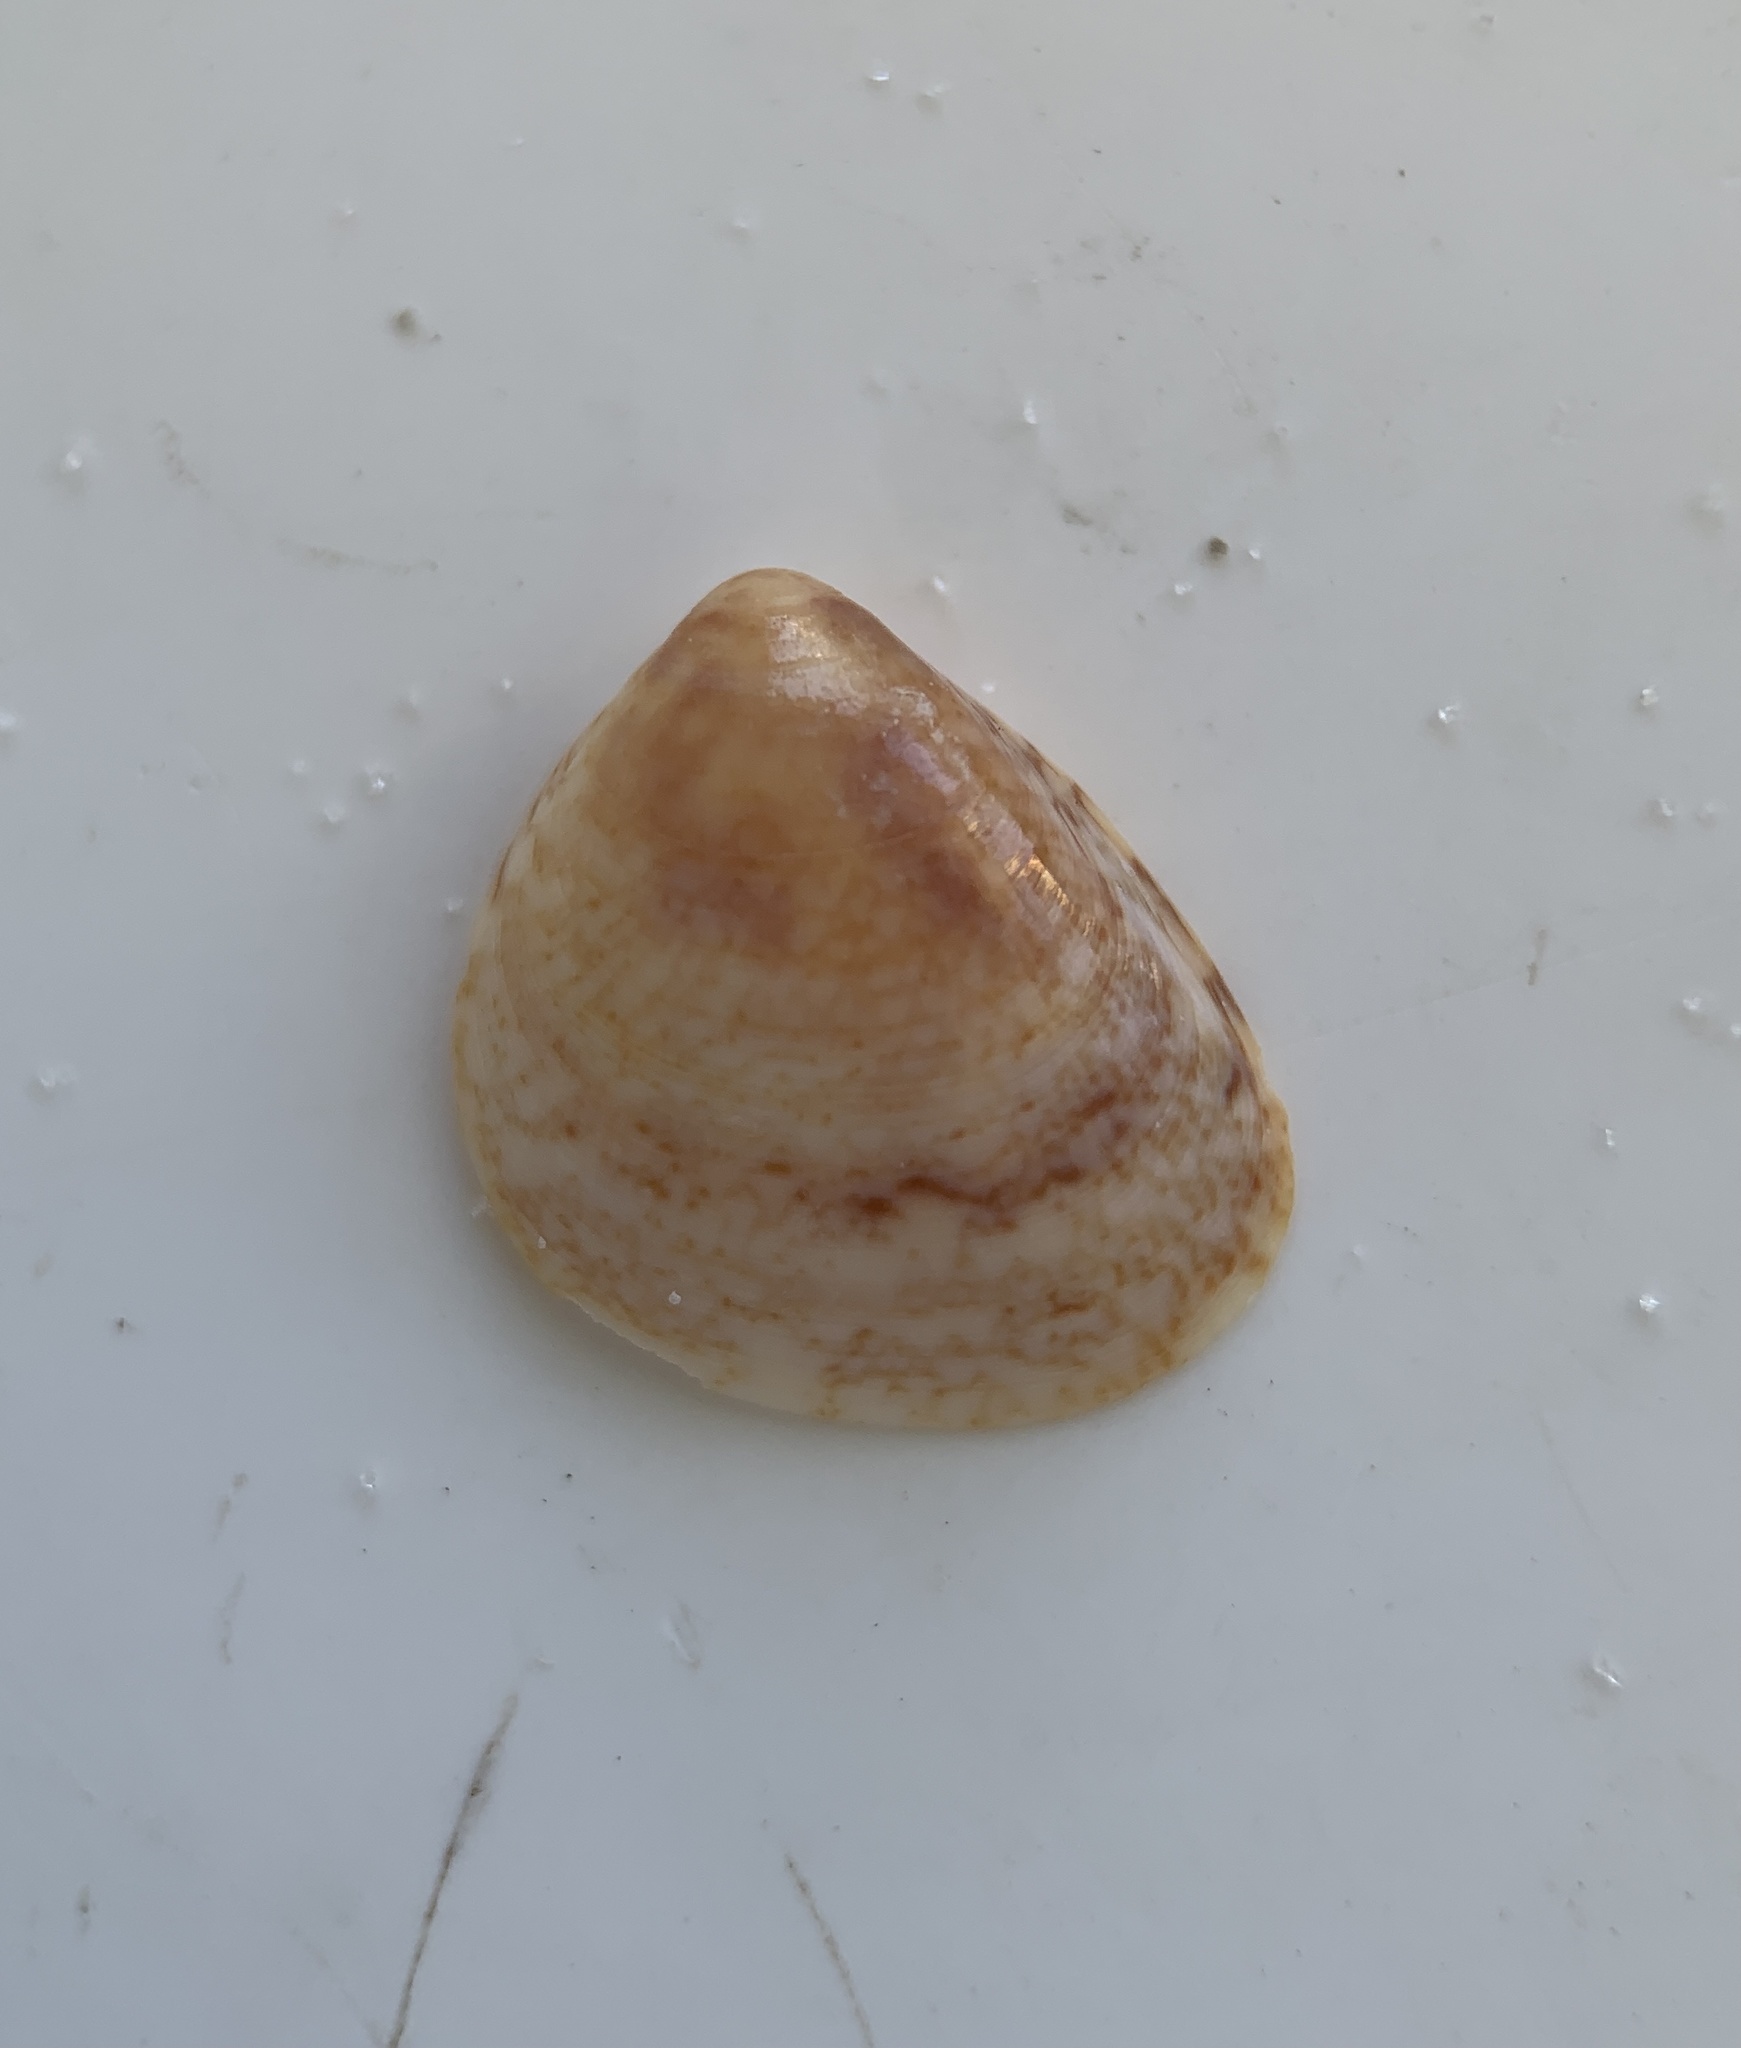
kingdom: Animalia
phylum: Mollusca
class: Bivalvia
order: Cardiida
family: Cardiidae
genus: Laevicardium
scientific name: Laevicardium pictum
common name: Painted eggcockle
